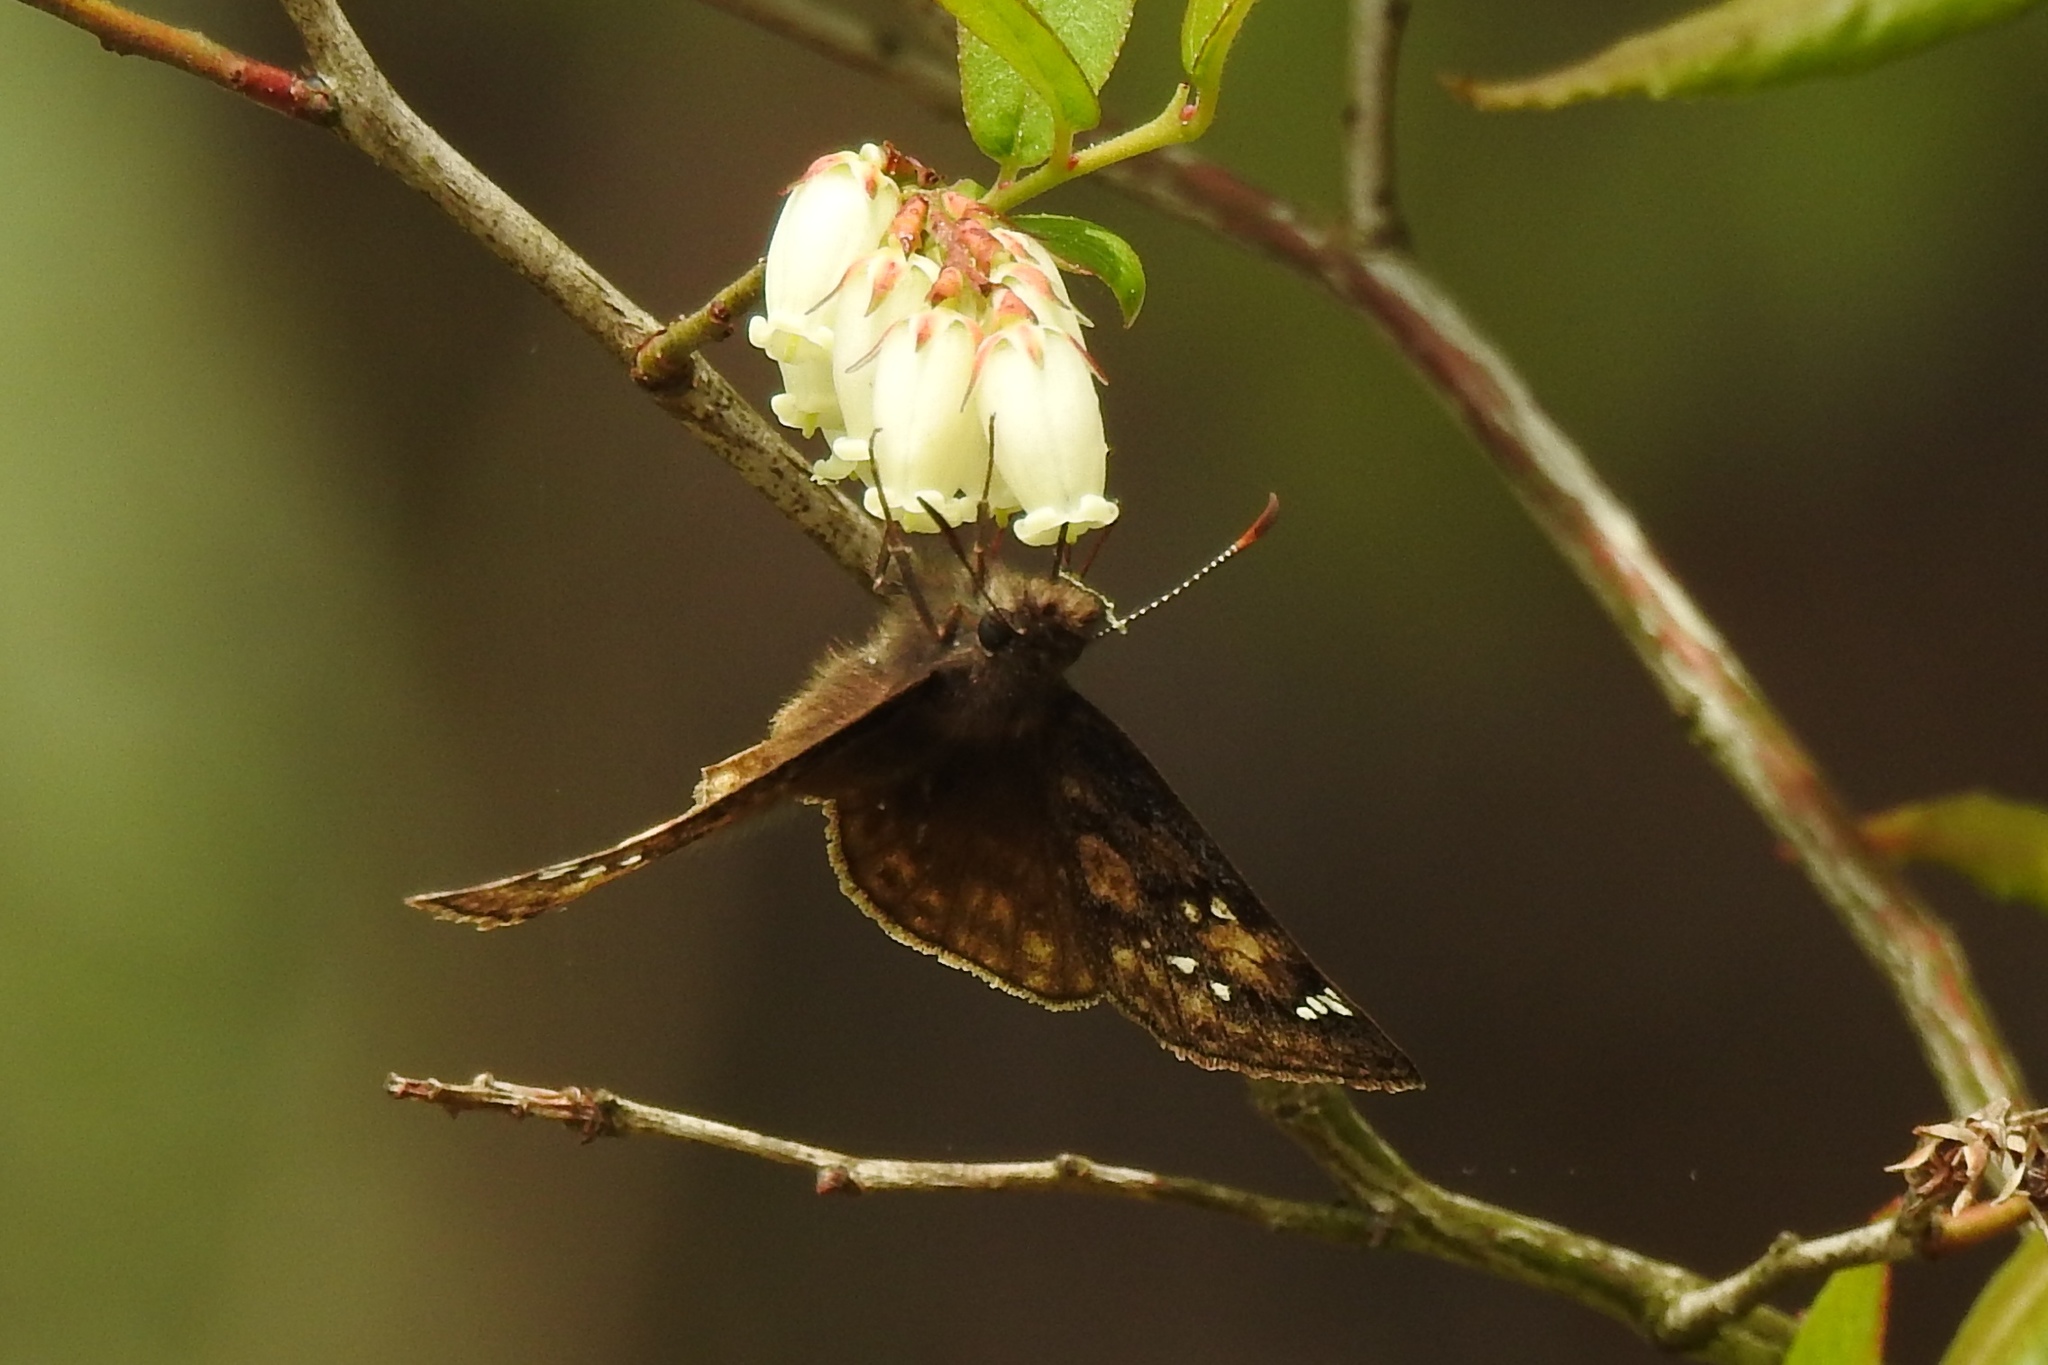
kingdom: Animalia
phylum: Arthropoda
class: Insecta
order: Lepidoptera
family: Hesperiidae
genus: Erynnis
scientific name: Erynnis juvenalis
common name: Juvenal's duskywing
